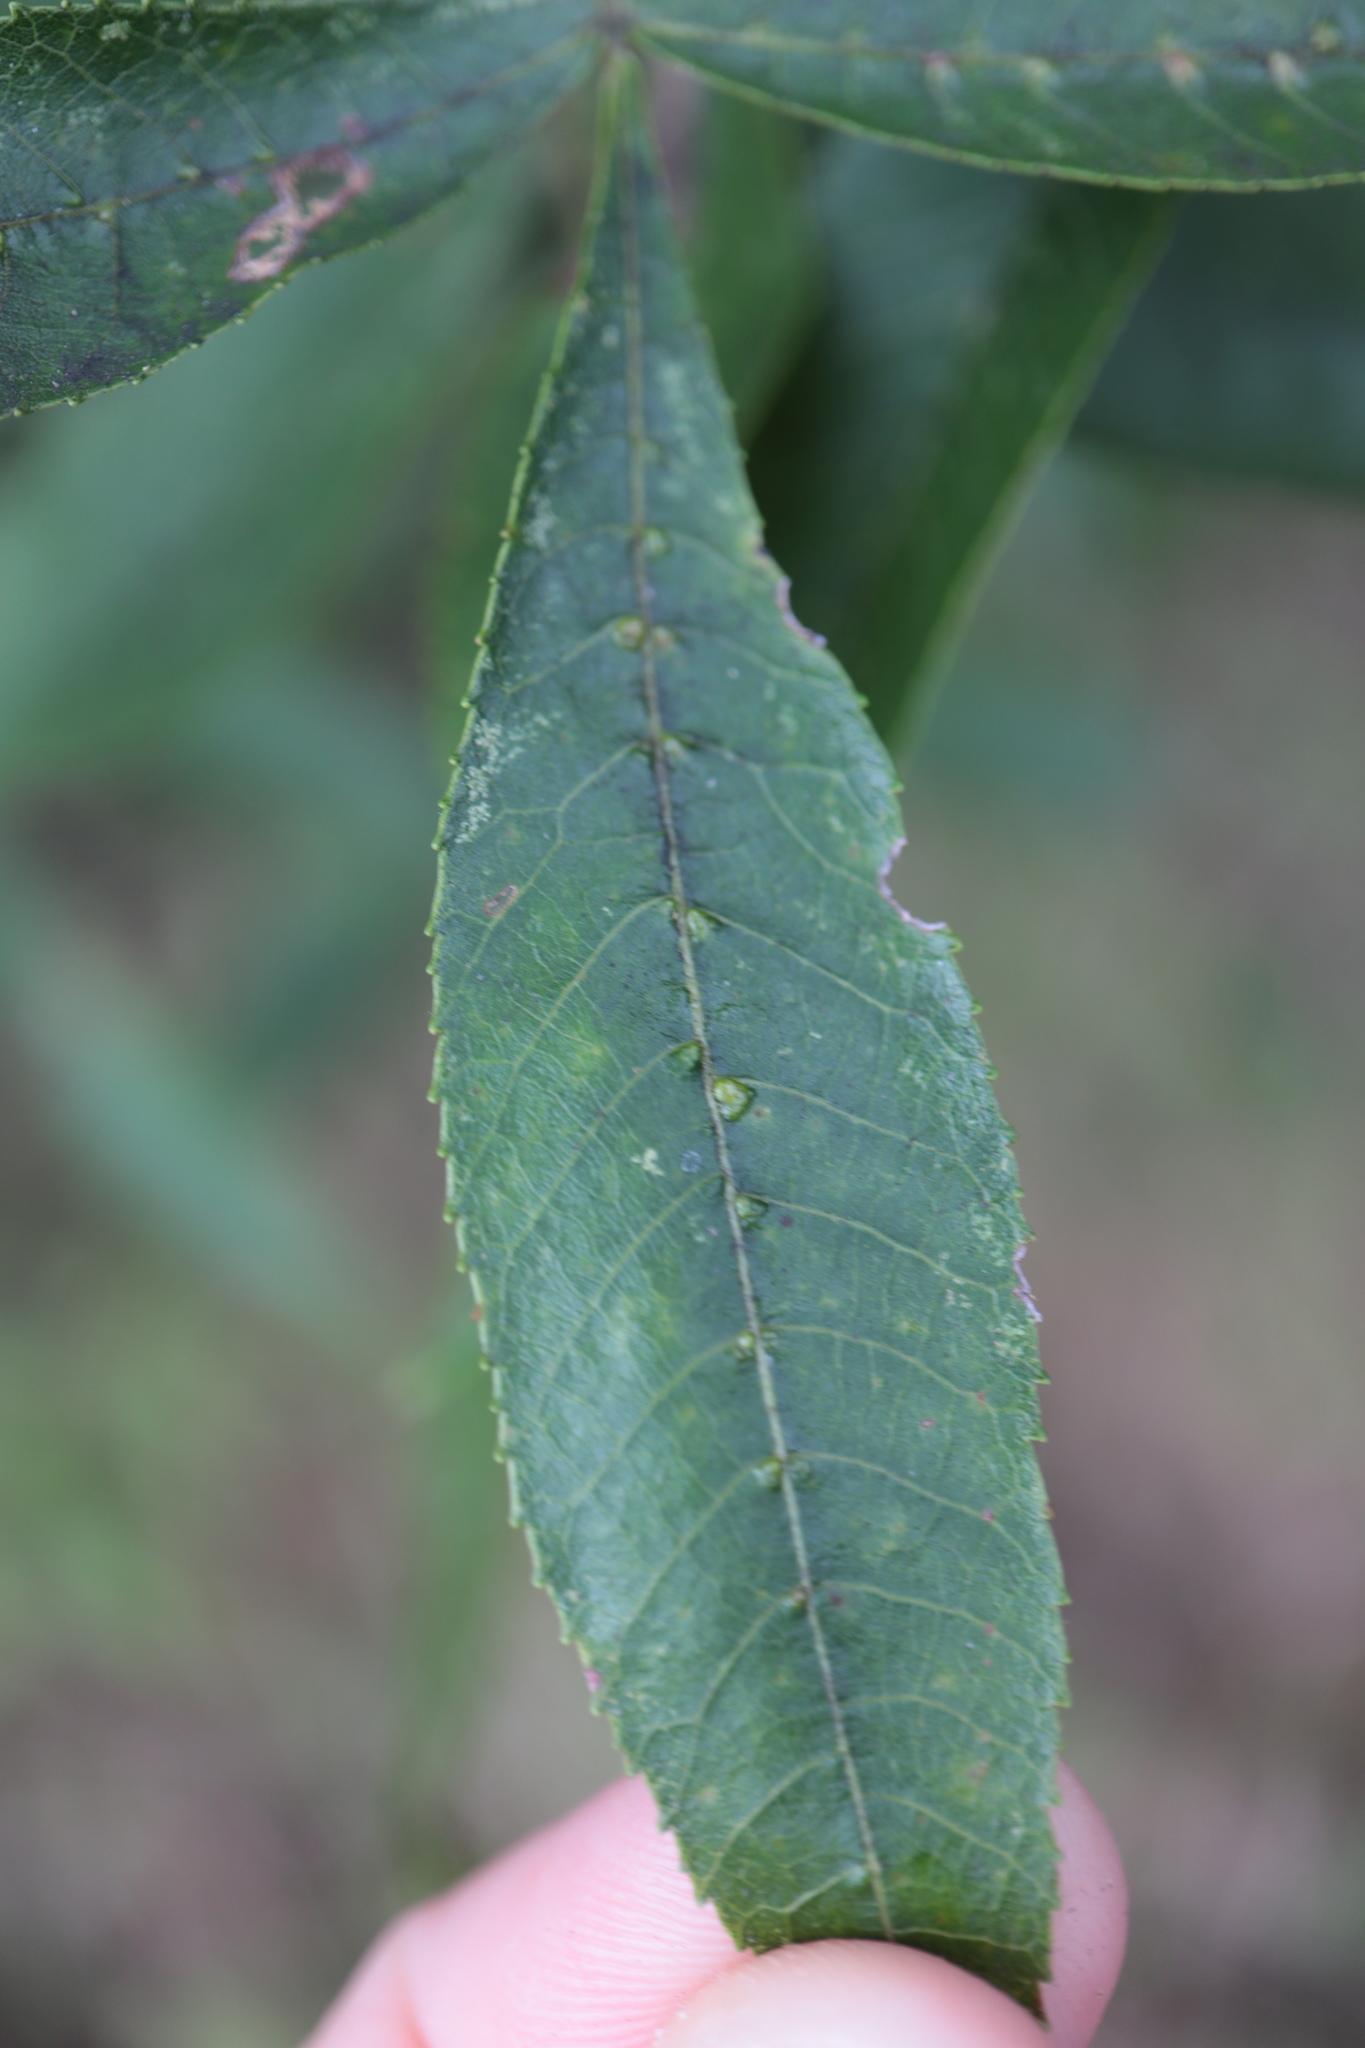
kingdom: Animalia
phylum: Arthropoda
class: Arachnida
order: Trombidiformes
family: Eriophyidae
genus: Aceria
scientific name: Aceria
